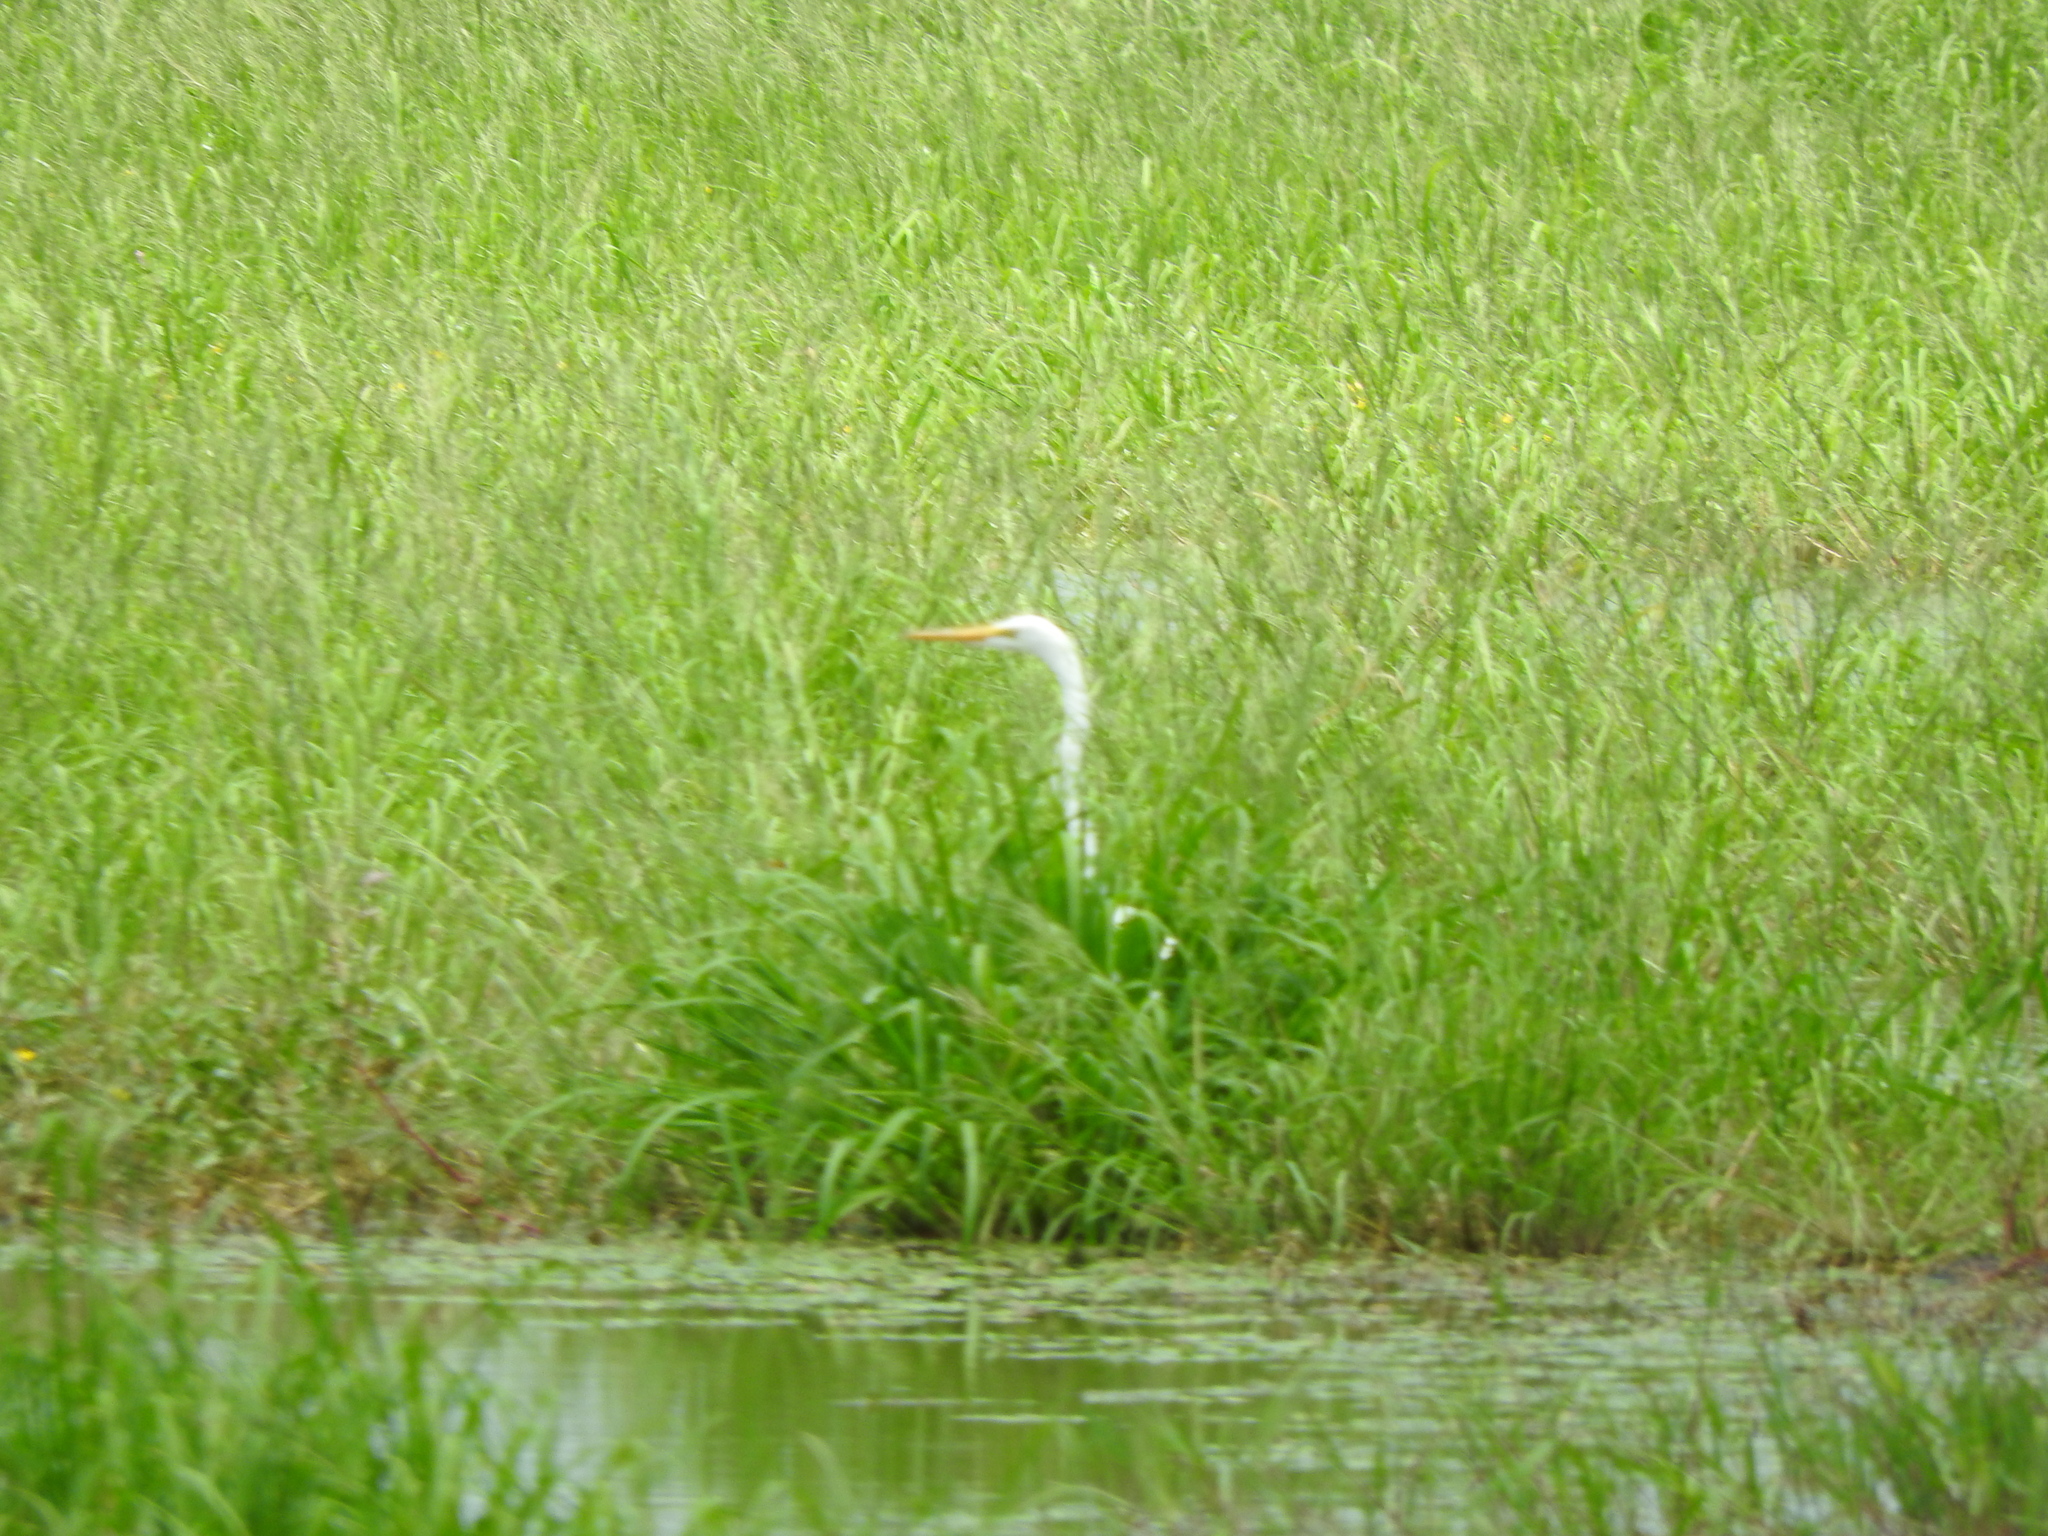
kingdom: Animalia
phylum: Chordata
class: Aves
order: Pelecaniformes
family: Ardeidae
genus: Ardea
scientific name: Ardea alba
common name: Great egret
